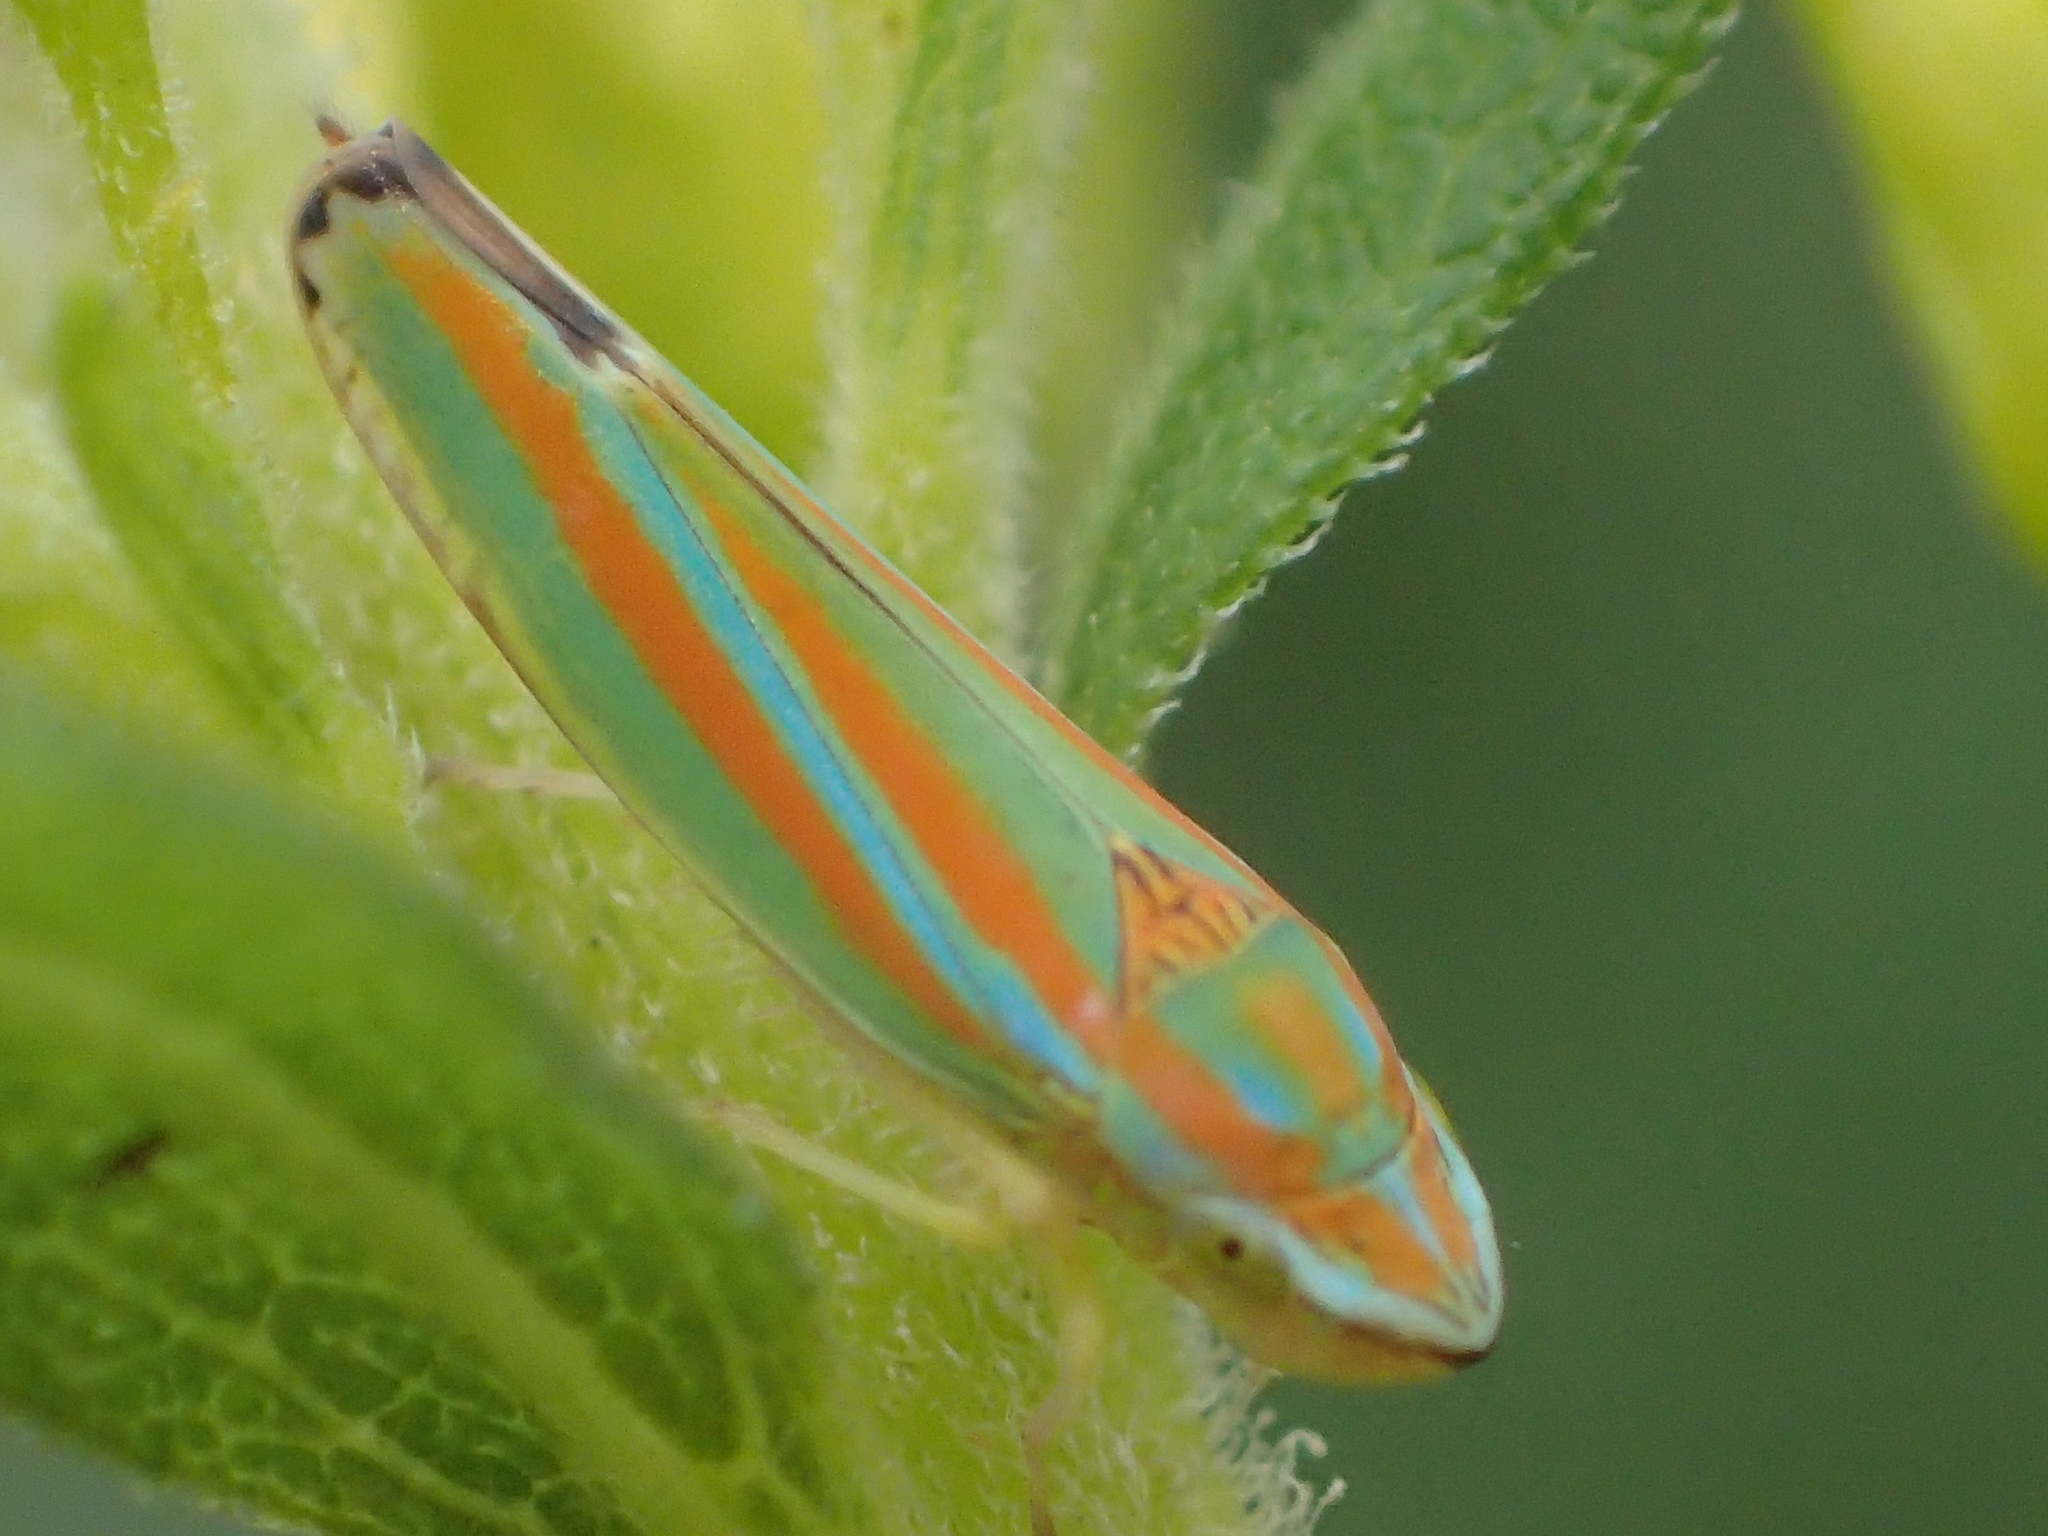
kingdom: Animalia
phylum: Arthropoda
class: Insecta
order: Hemiptera
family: Cicadellidae
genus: Graphocephala
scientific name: Graphocephala versuta
